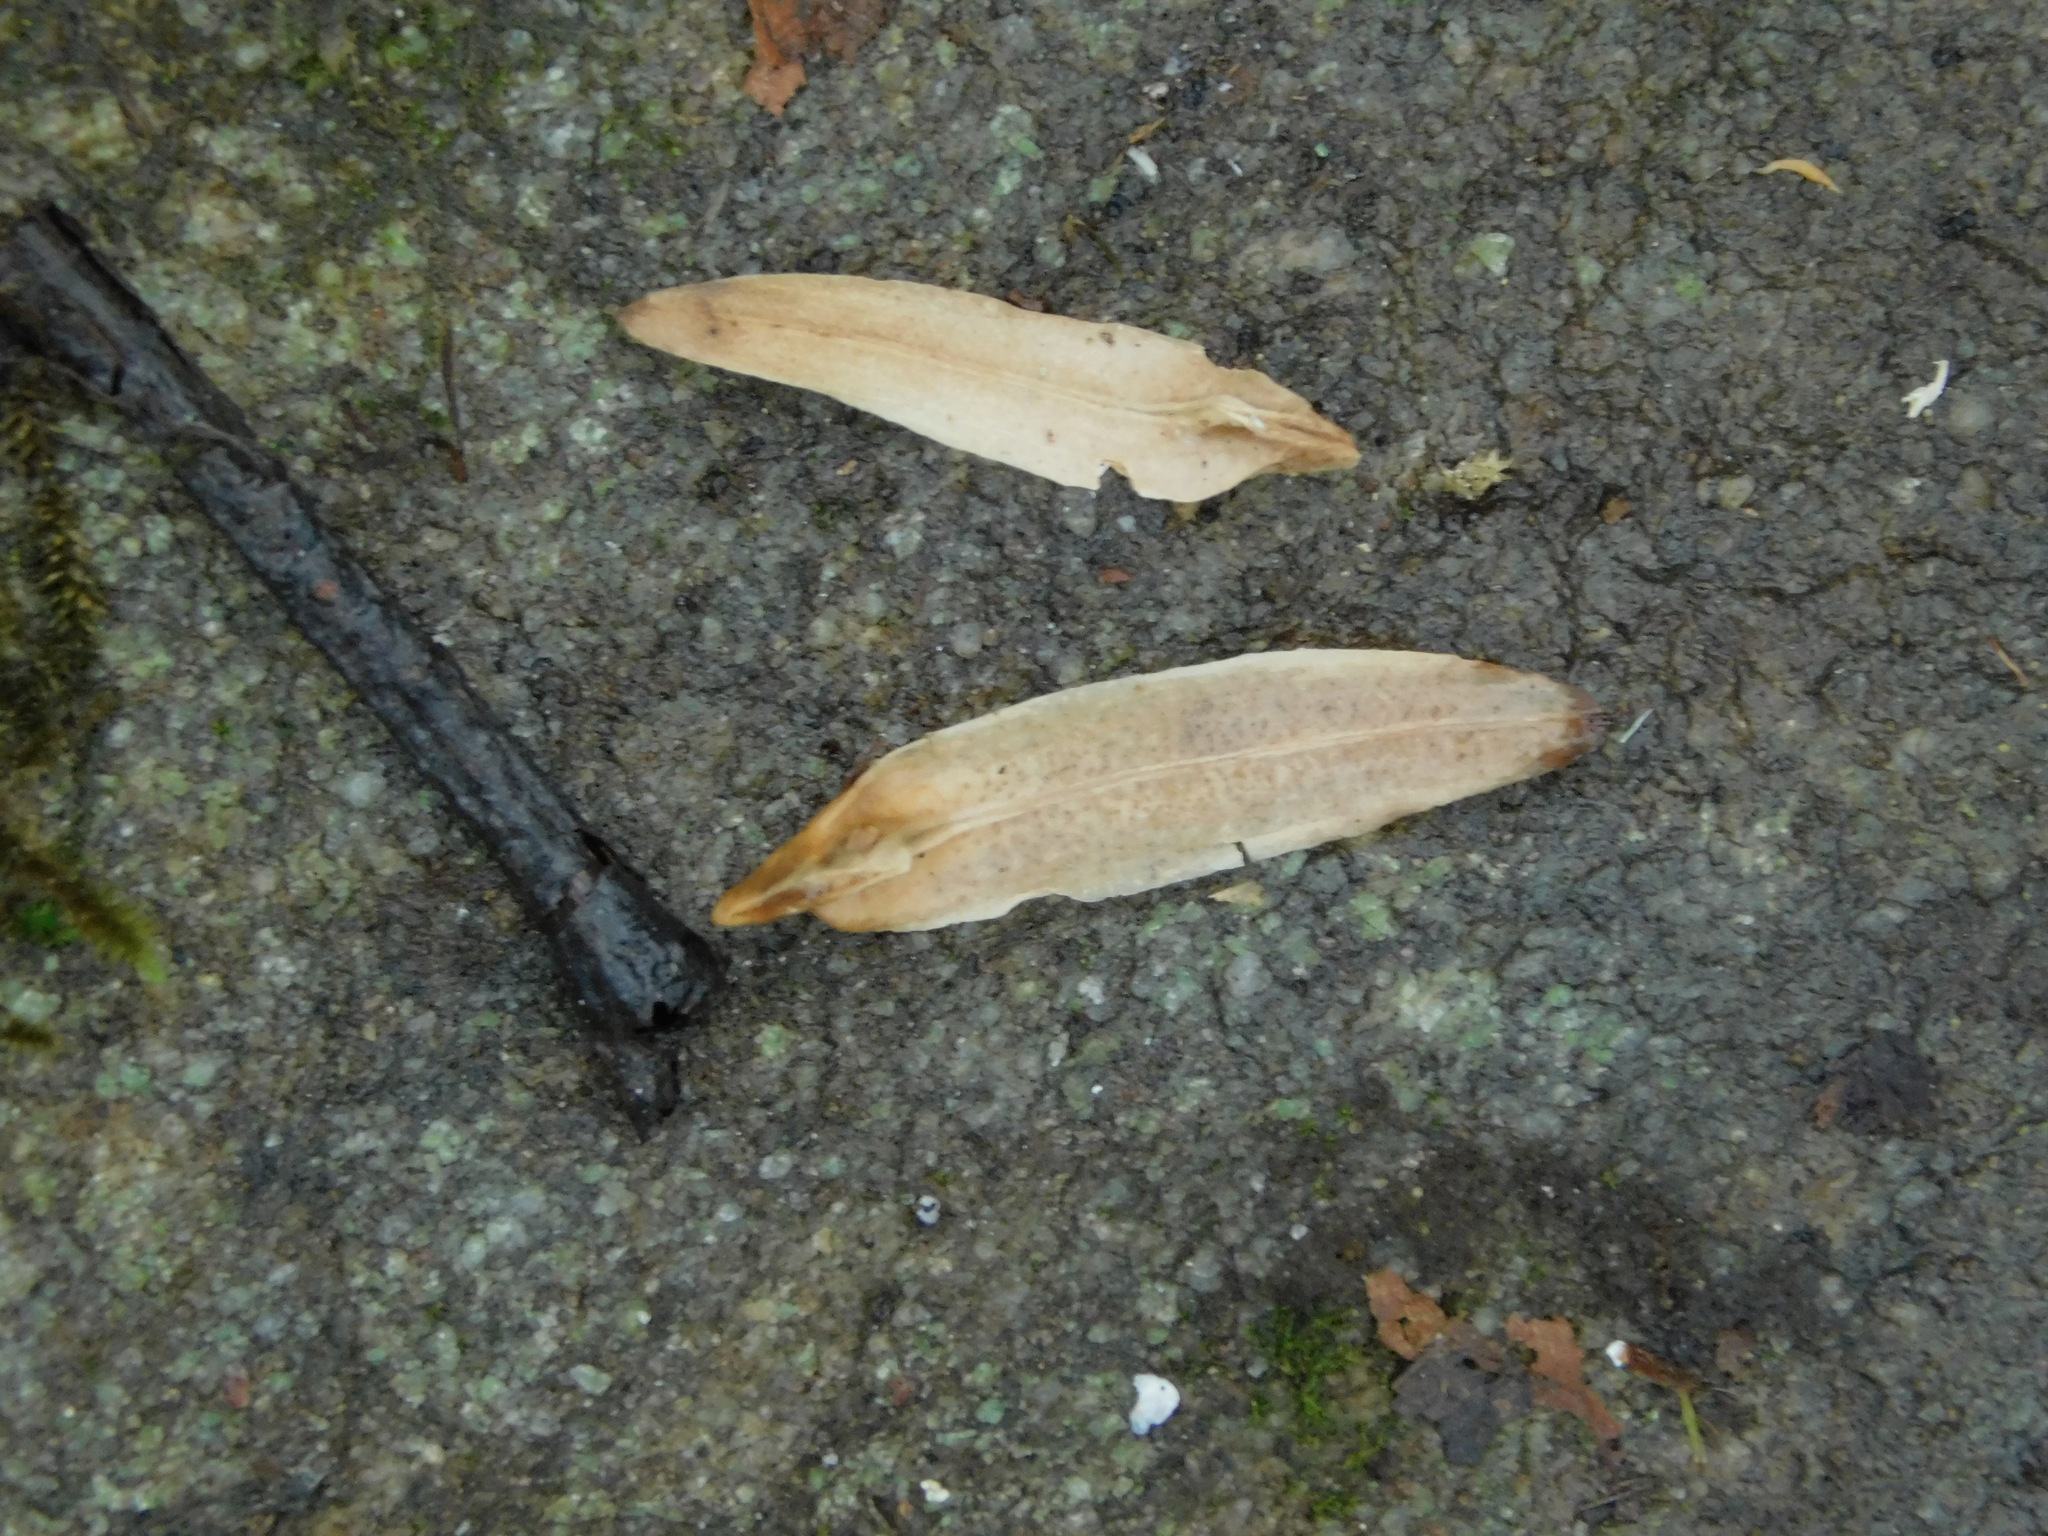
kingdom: Plantae
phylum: Tracheophyta
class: Magnoliopsida
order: Magnoliales
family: Magnoliaceae
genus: Liriodendron
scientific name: Liriodendron tulipifera
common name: Tulip tree
